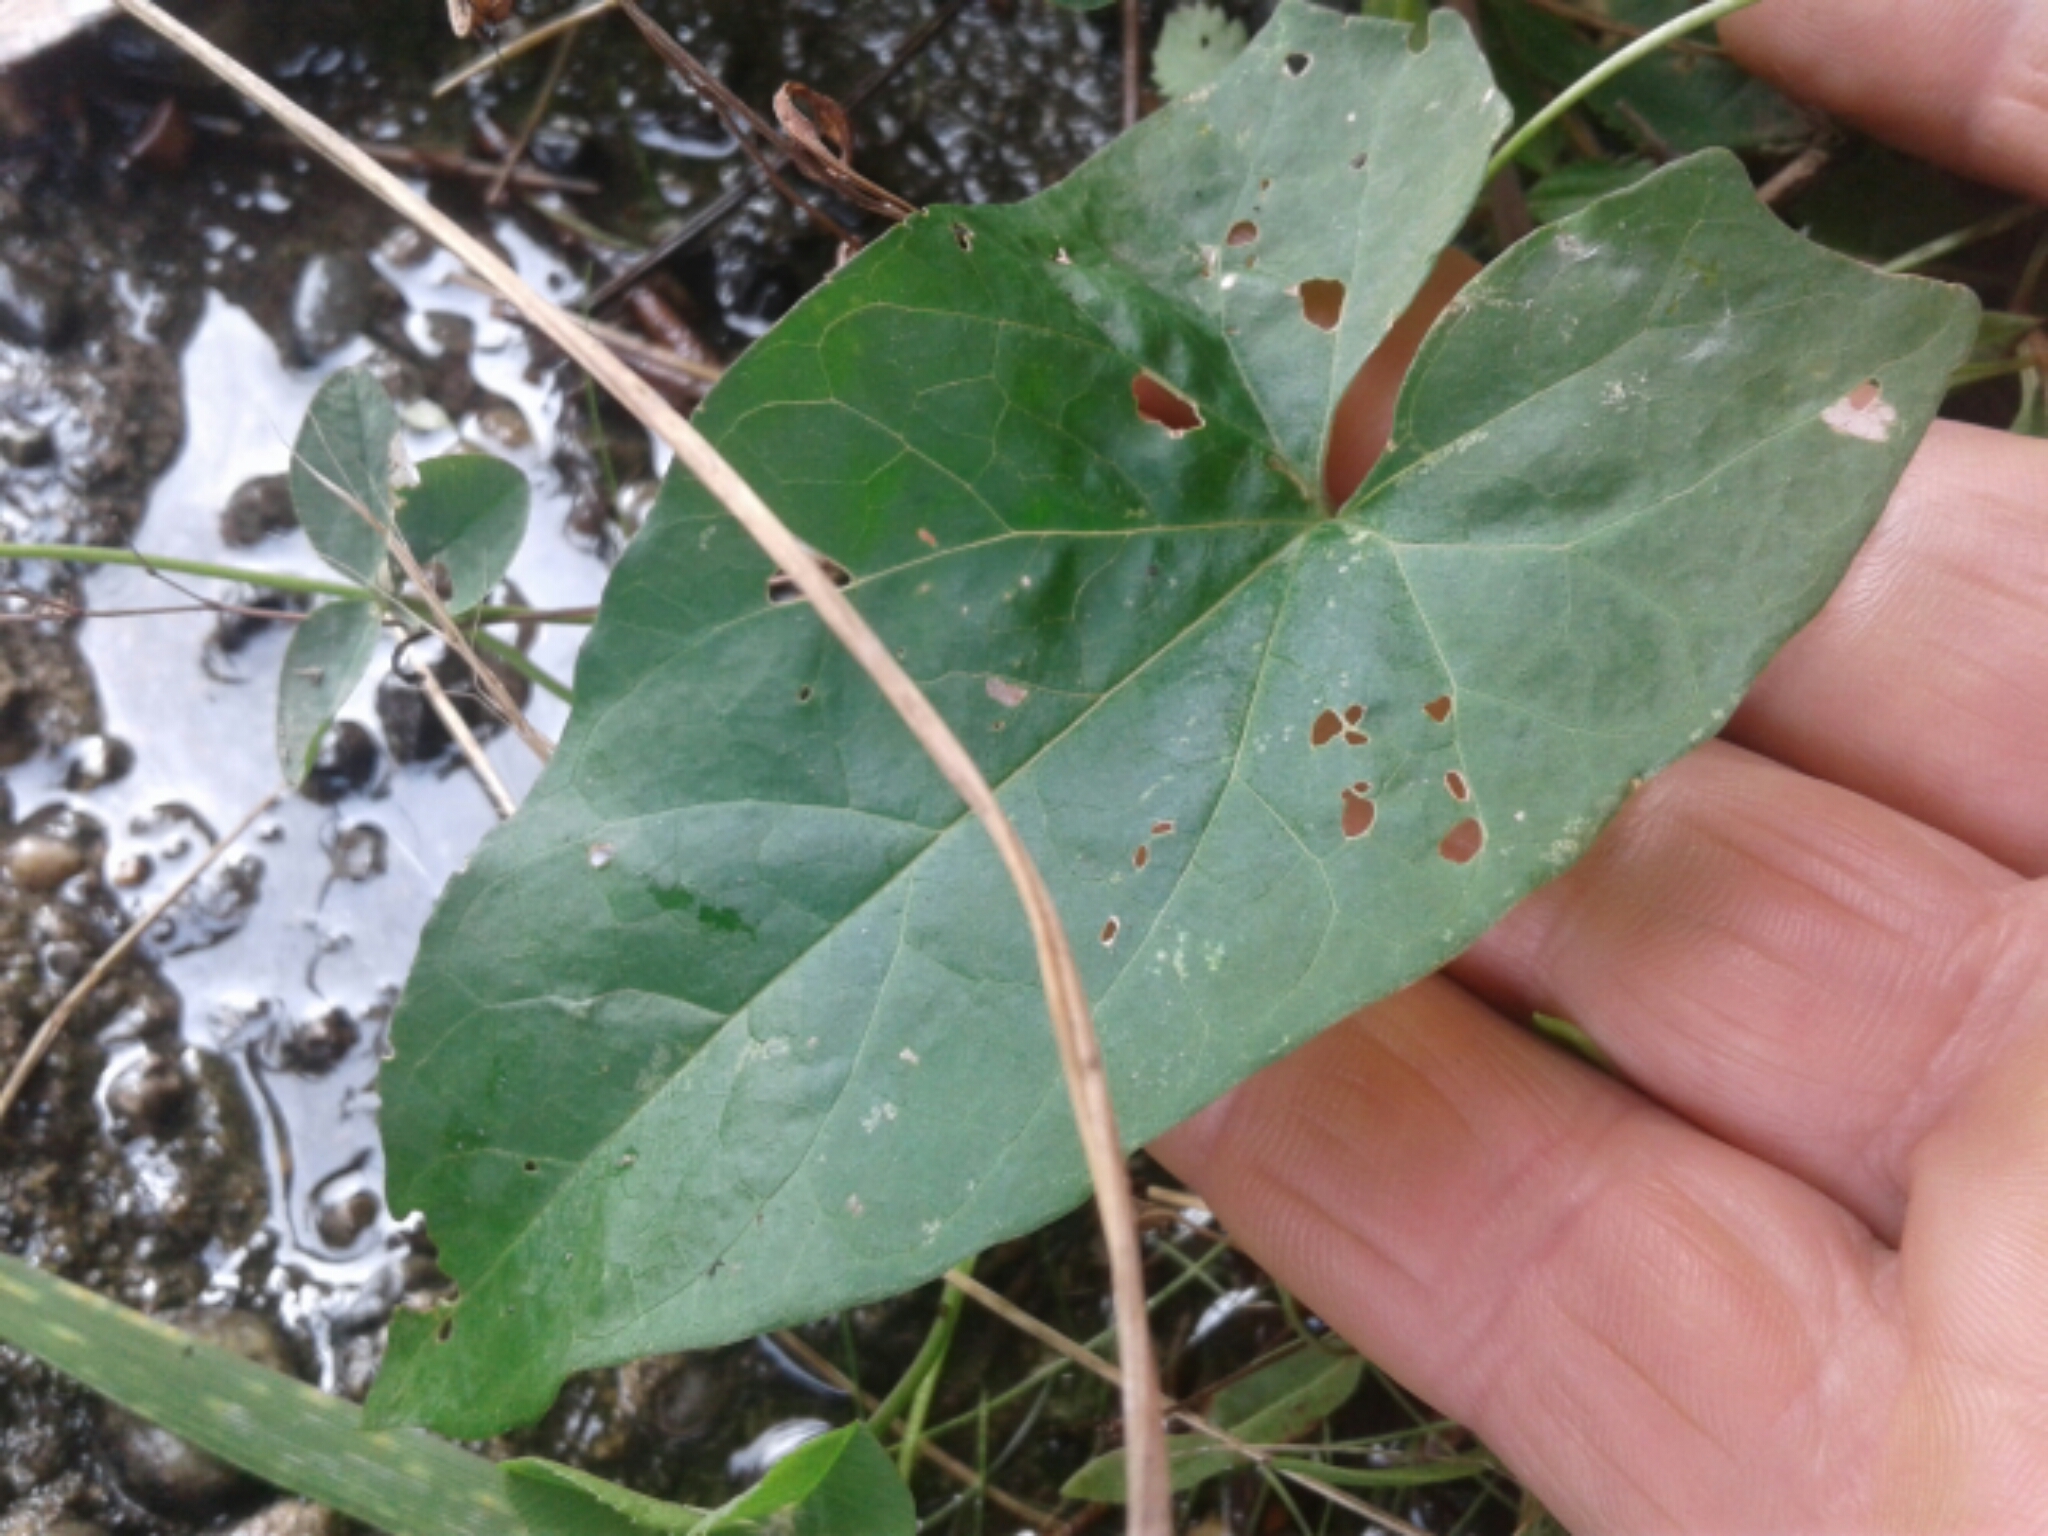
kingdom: Plantae
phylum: Tracheophyta
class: Magnoliopsida
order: Solanales
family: Convolvulaceae
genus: Calystegia
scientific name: Calystegia sepium
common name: Hedge bindweed
